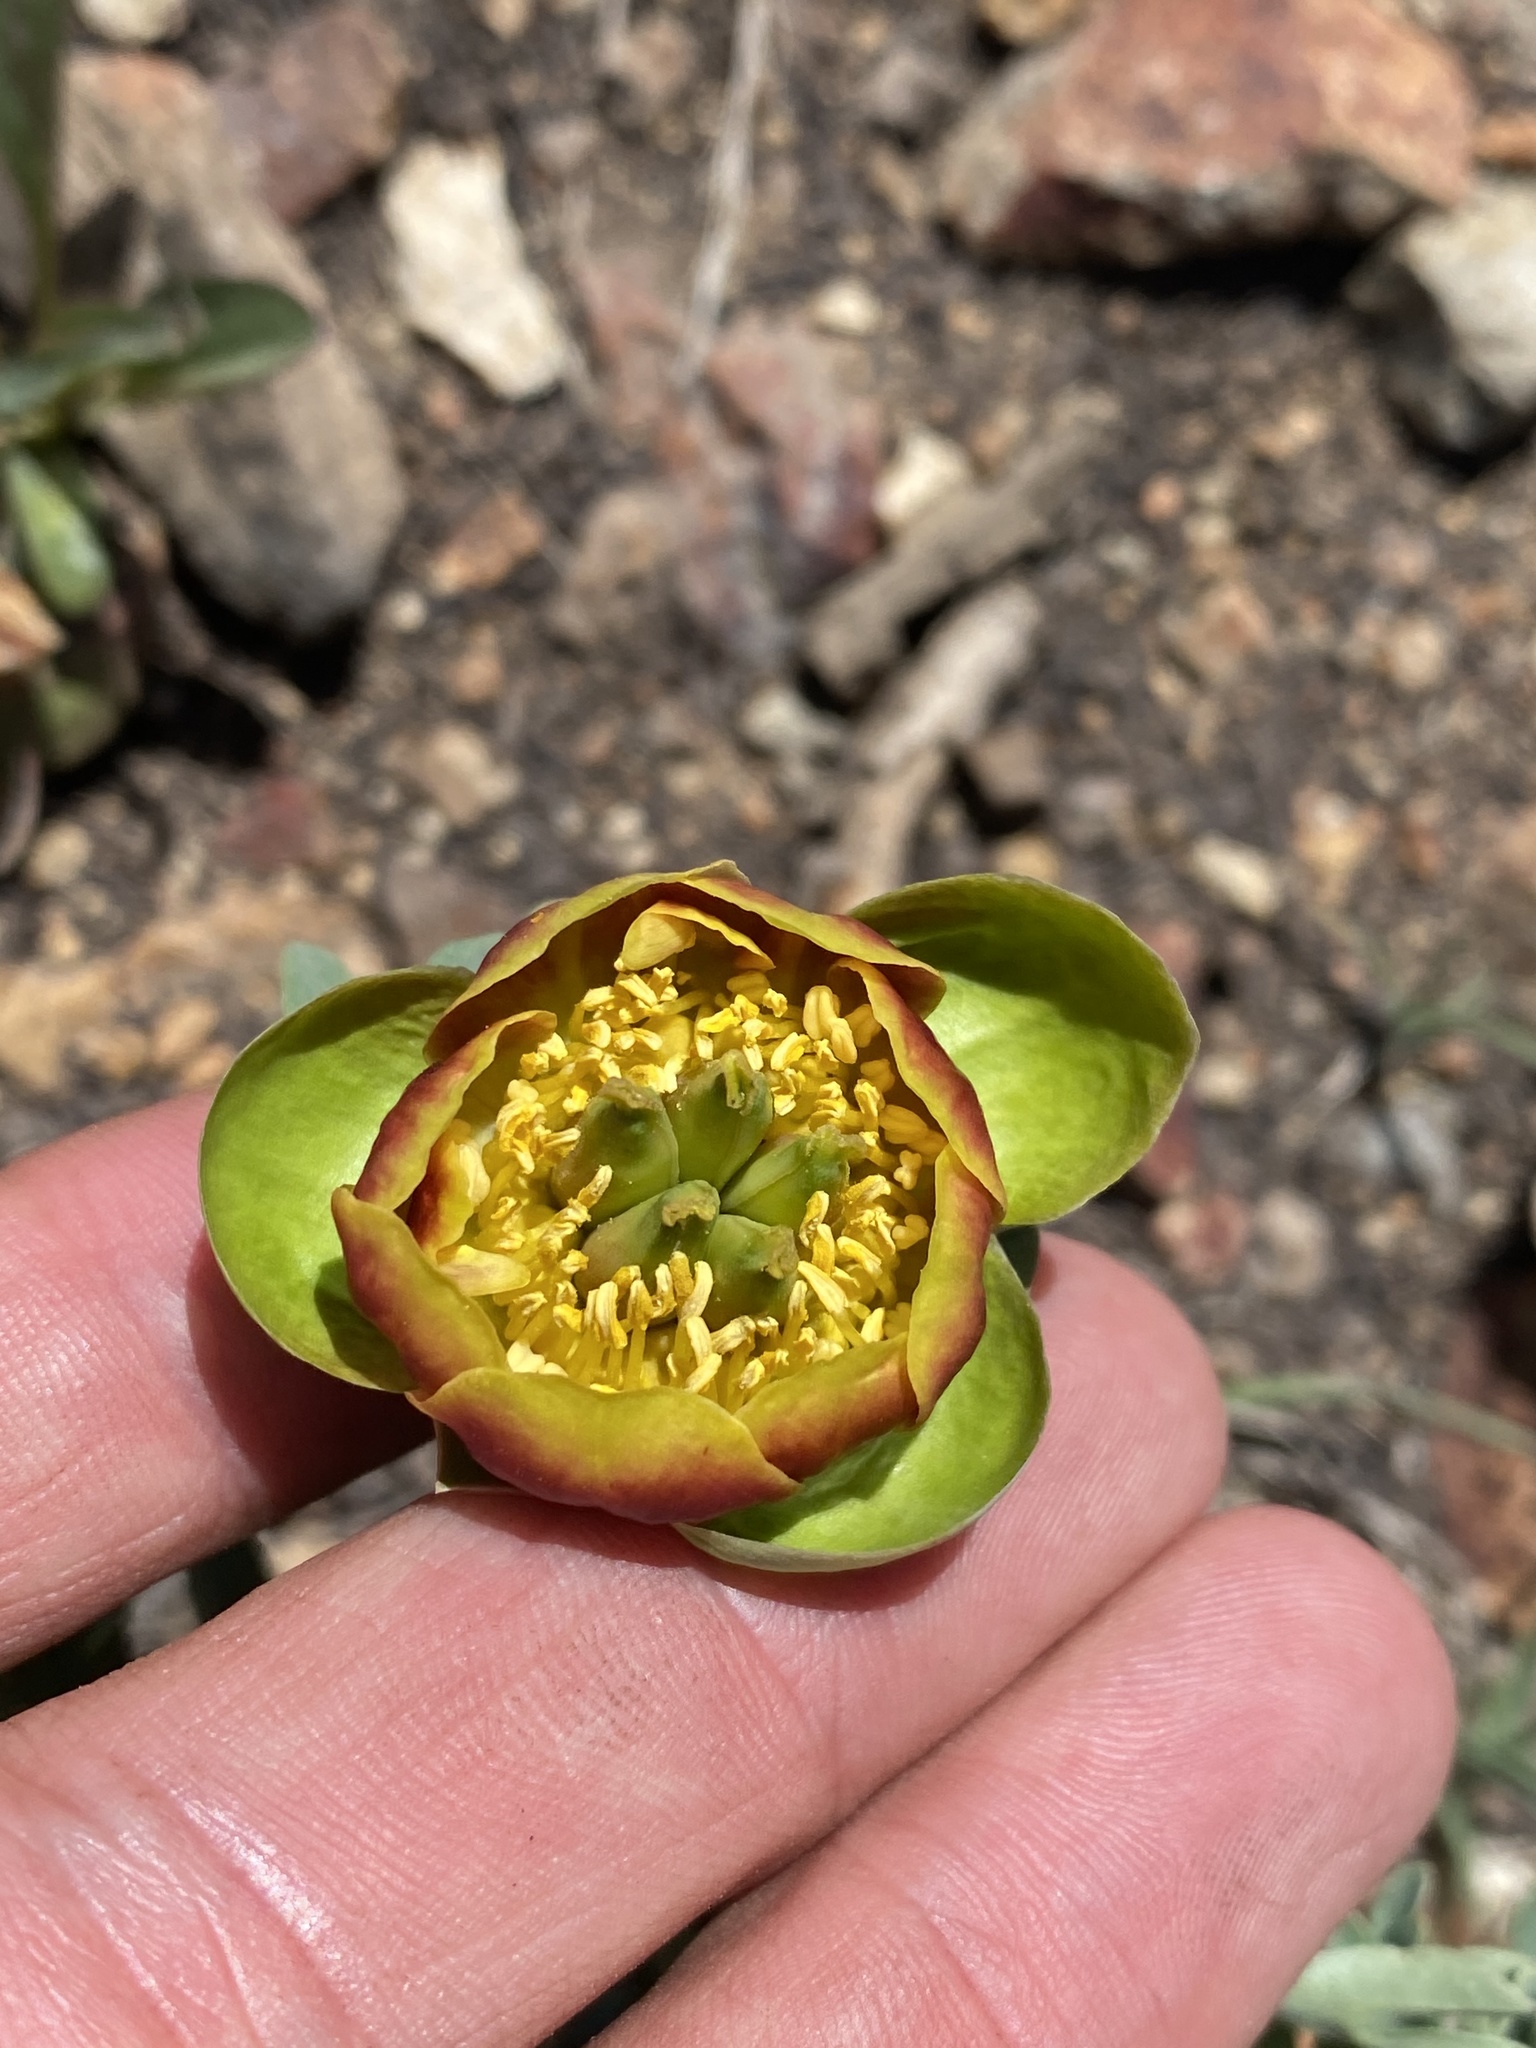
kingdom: Plantae
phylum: Tracheophyta
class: Magnoliopsida
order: Saxifragales
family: Paeoniaceae
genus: Paeonia
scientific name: Paeonia brownii
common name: Brown's peony
